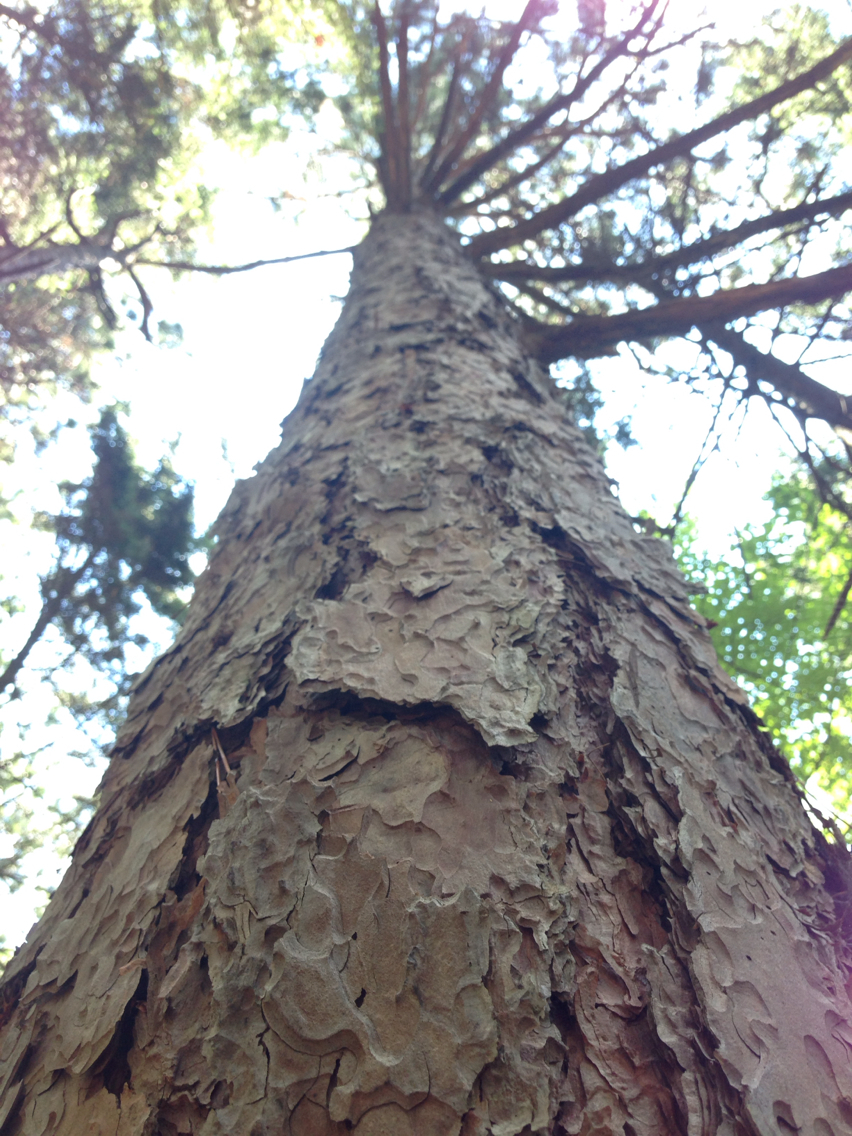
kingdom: Plantae
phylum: Tracheophyta
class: Pinopsida
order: Pinales
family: Pinaceae
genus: Pinus
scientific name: Pinus resinosa
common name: Norway pine
